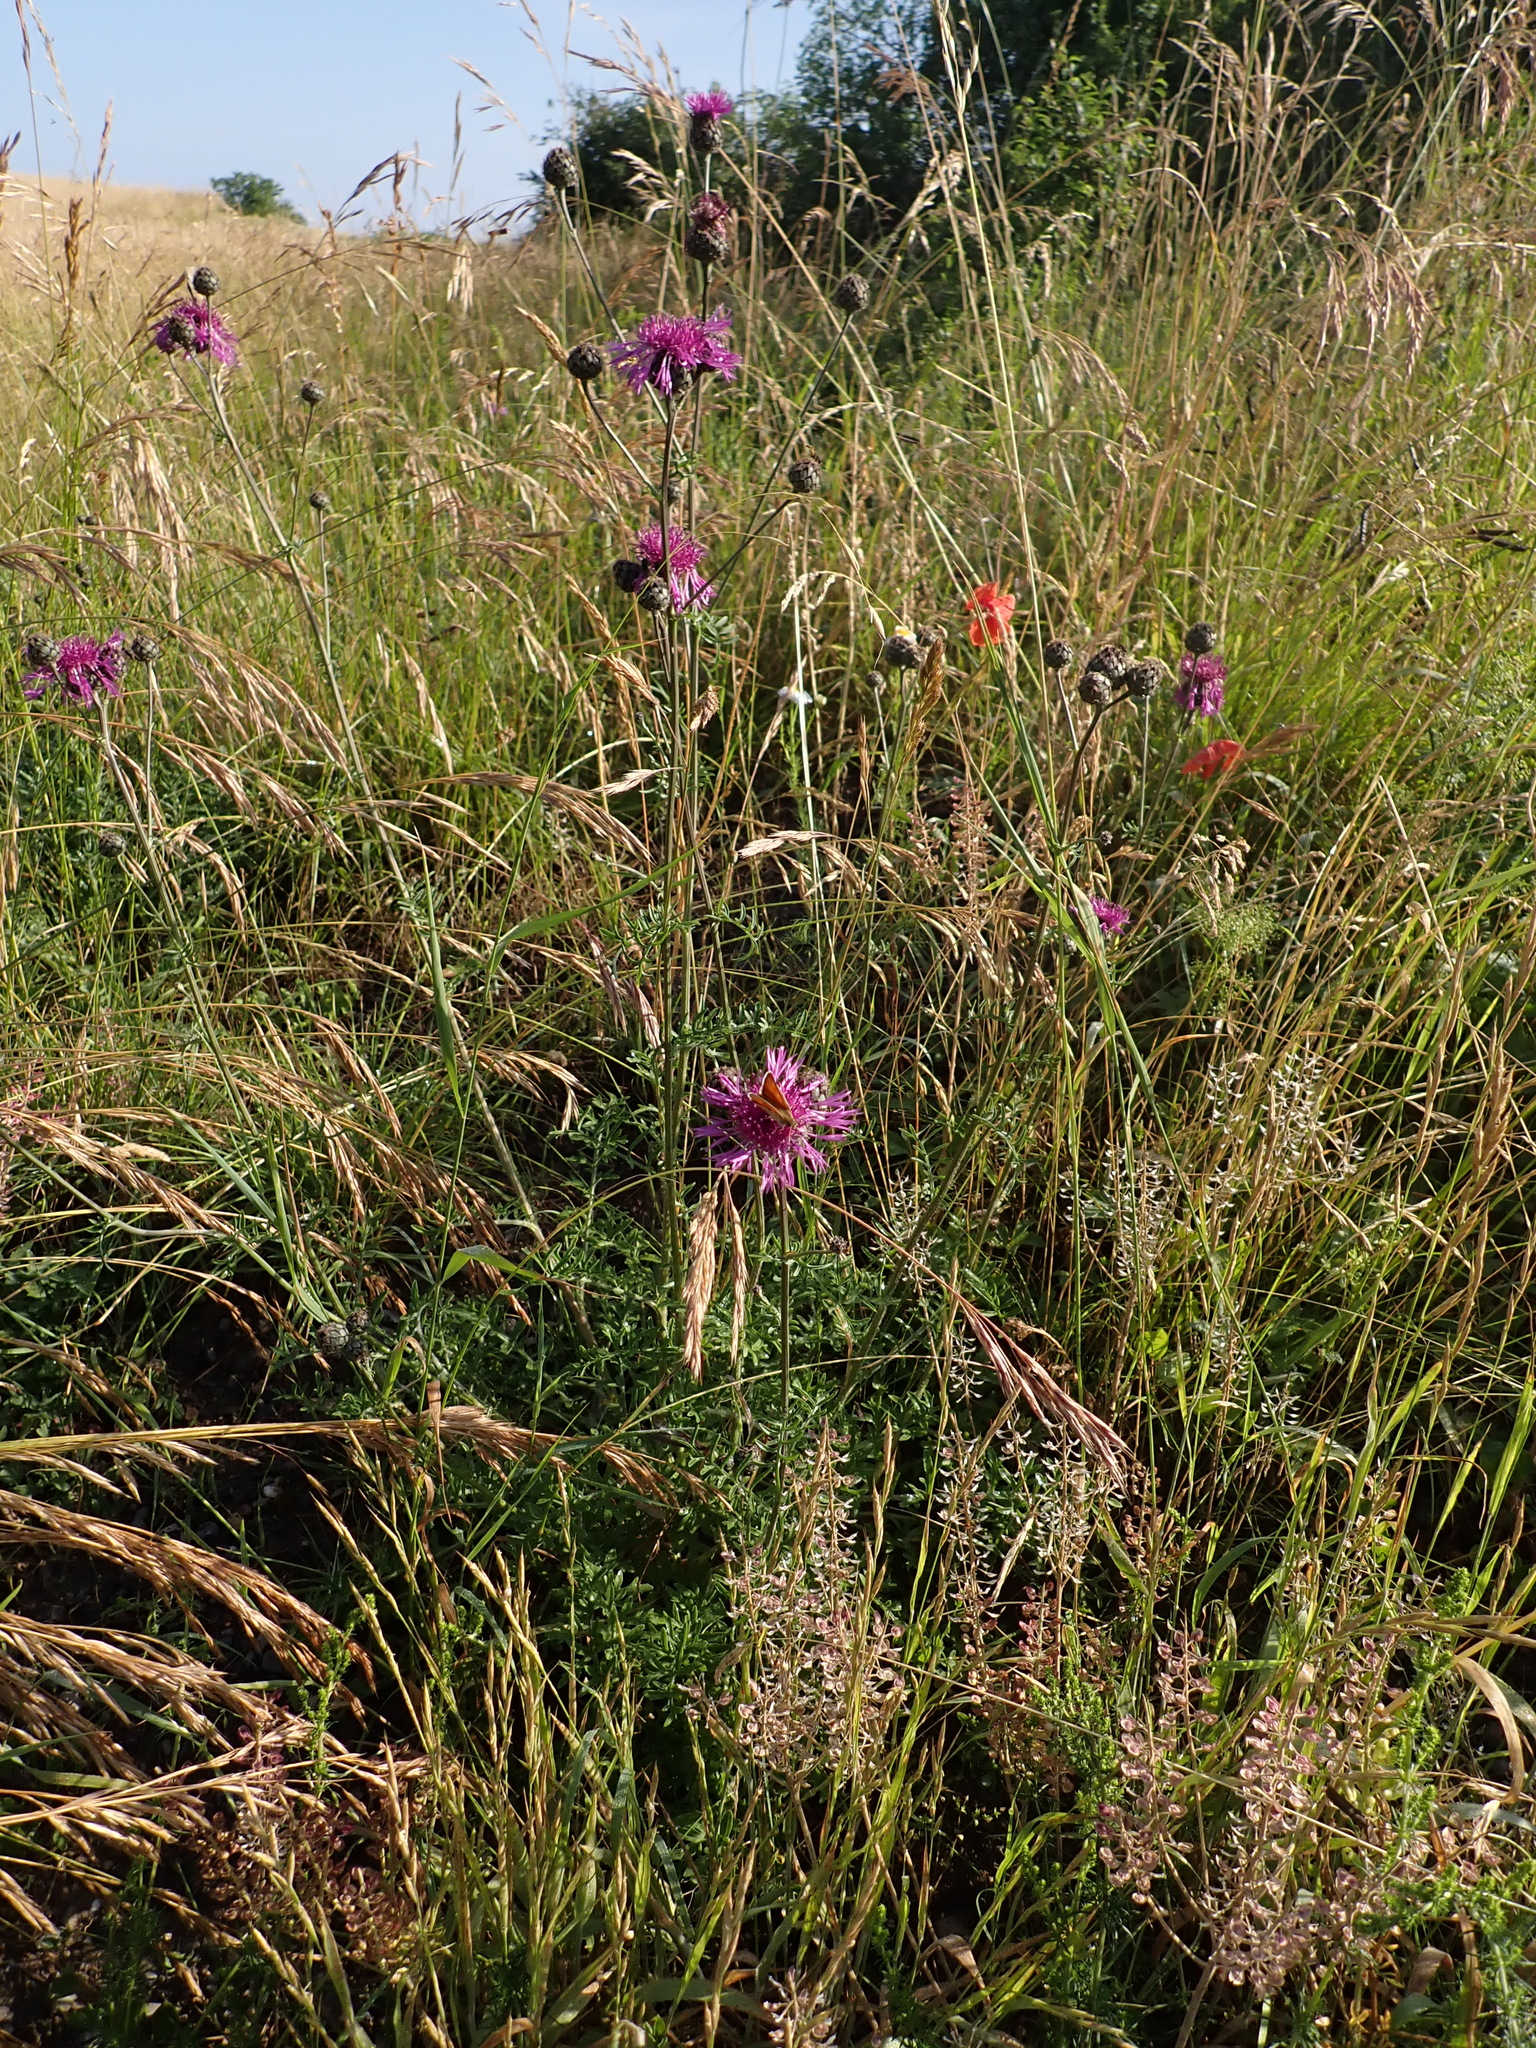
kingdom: Plantae
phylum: Tracheophyta
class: Magnoliopsida
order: Asterales
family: Asteraceae
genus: Centaurea
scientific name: Centaurea scabiosa
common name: Greater knapweed
